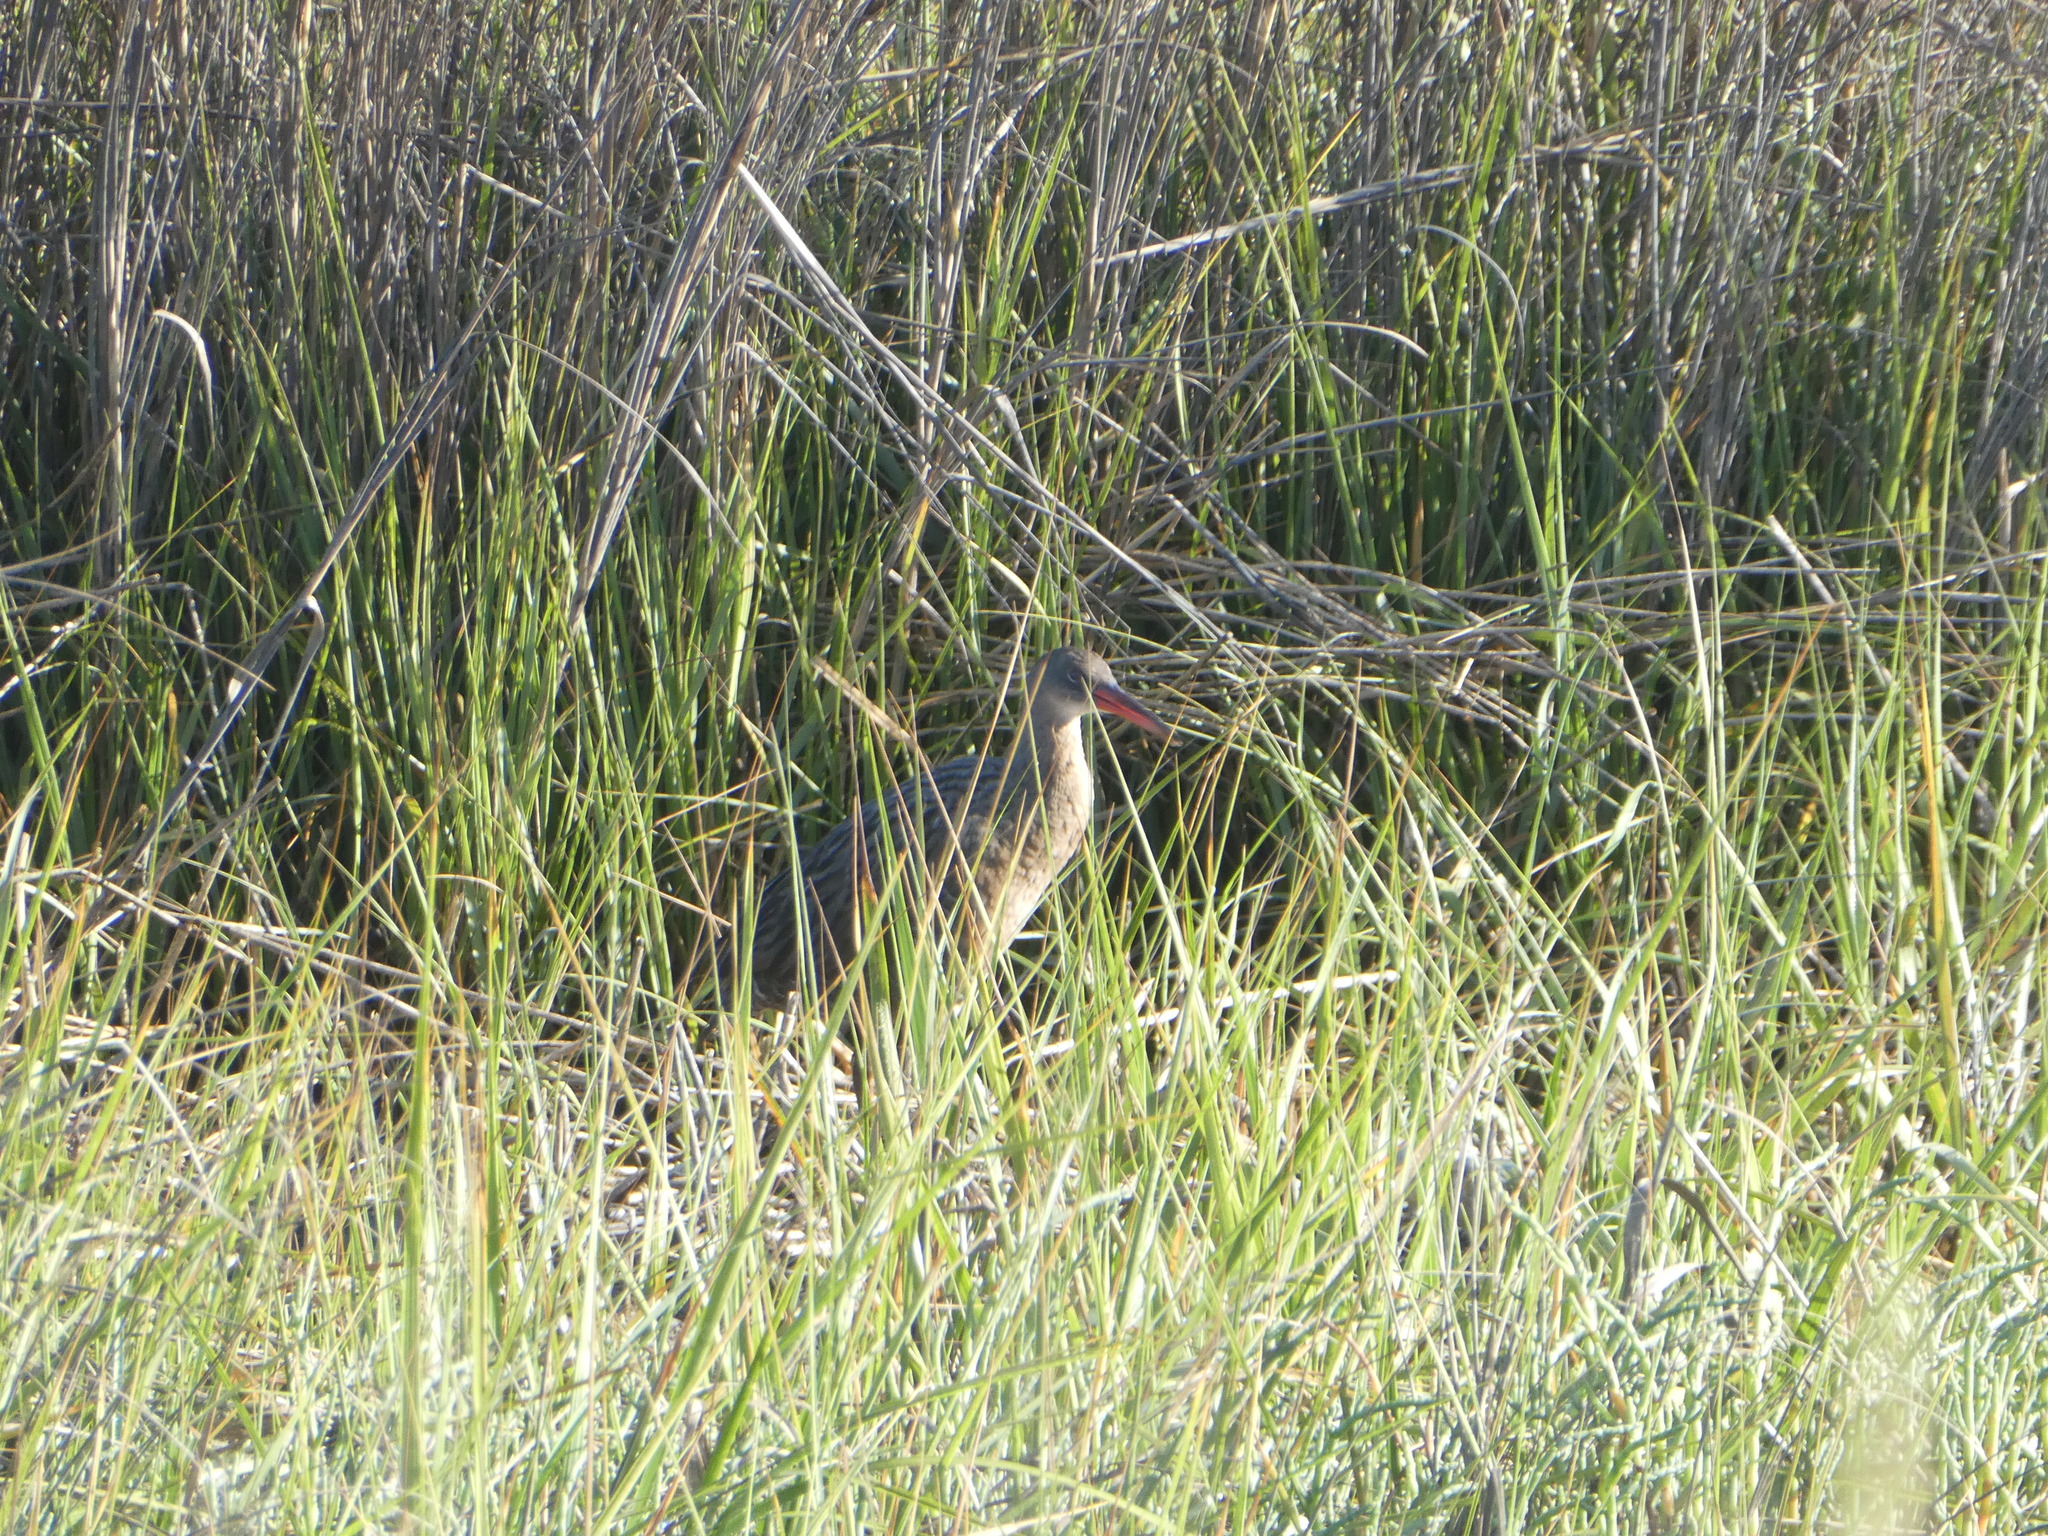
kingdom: Animalia
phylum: Chordata
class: Aves
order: Gruiformes
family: Rallidae
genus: Rallus
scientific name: Rallus obsoletus
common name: Ridgway's rail
